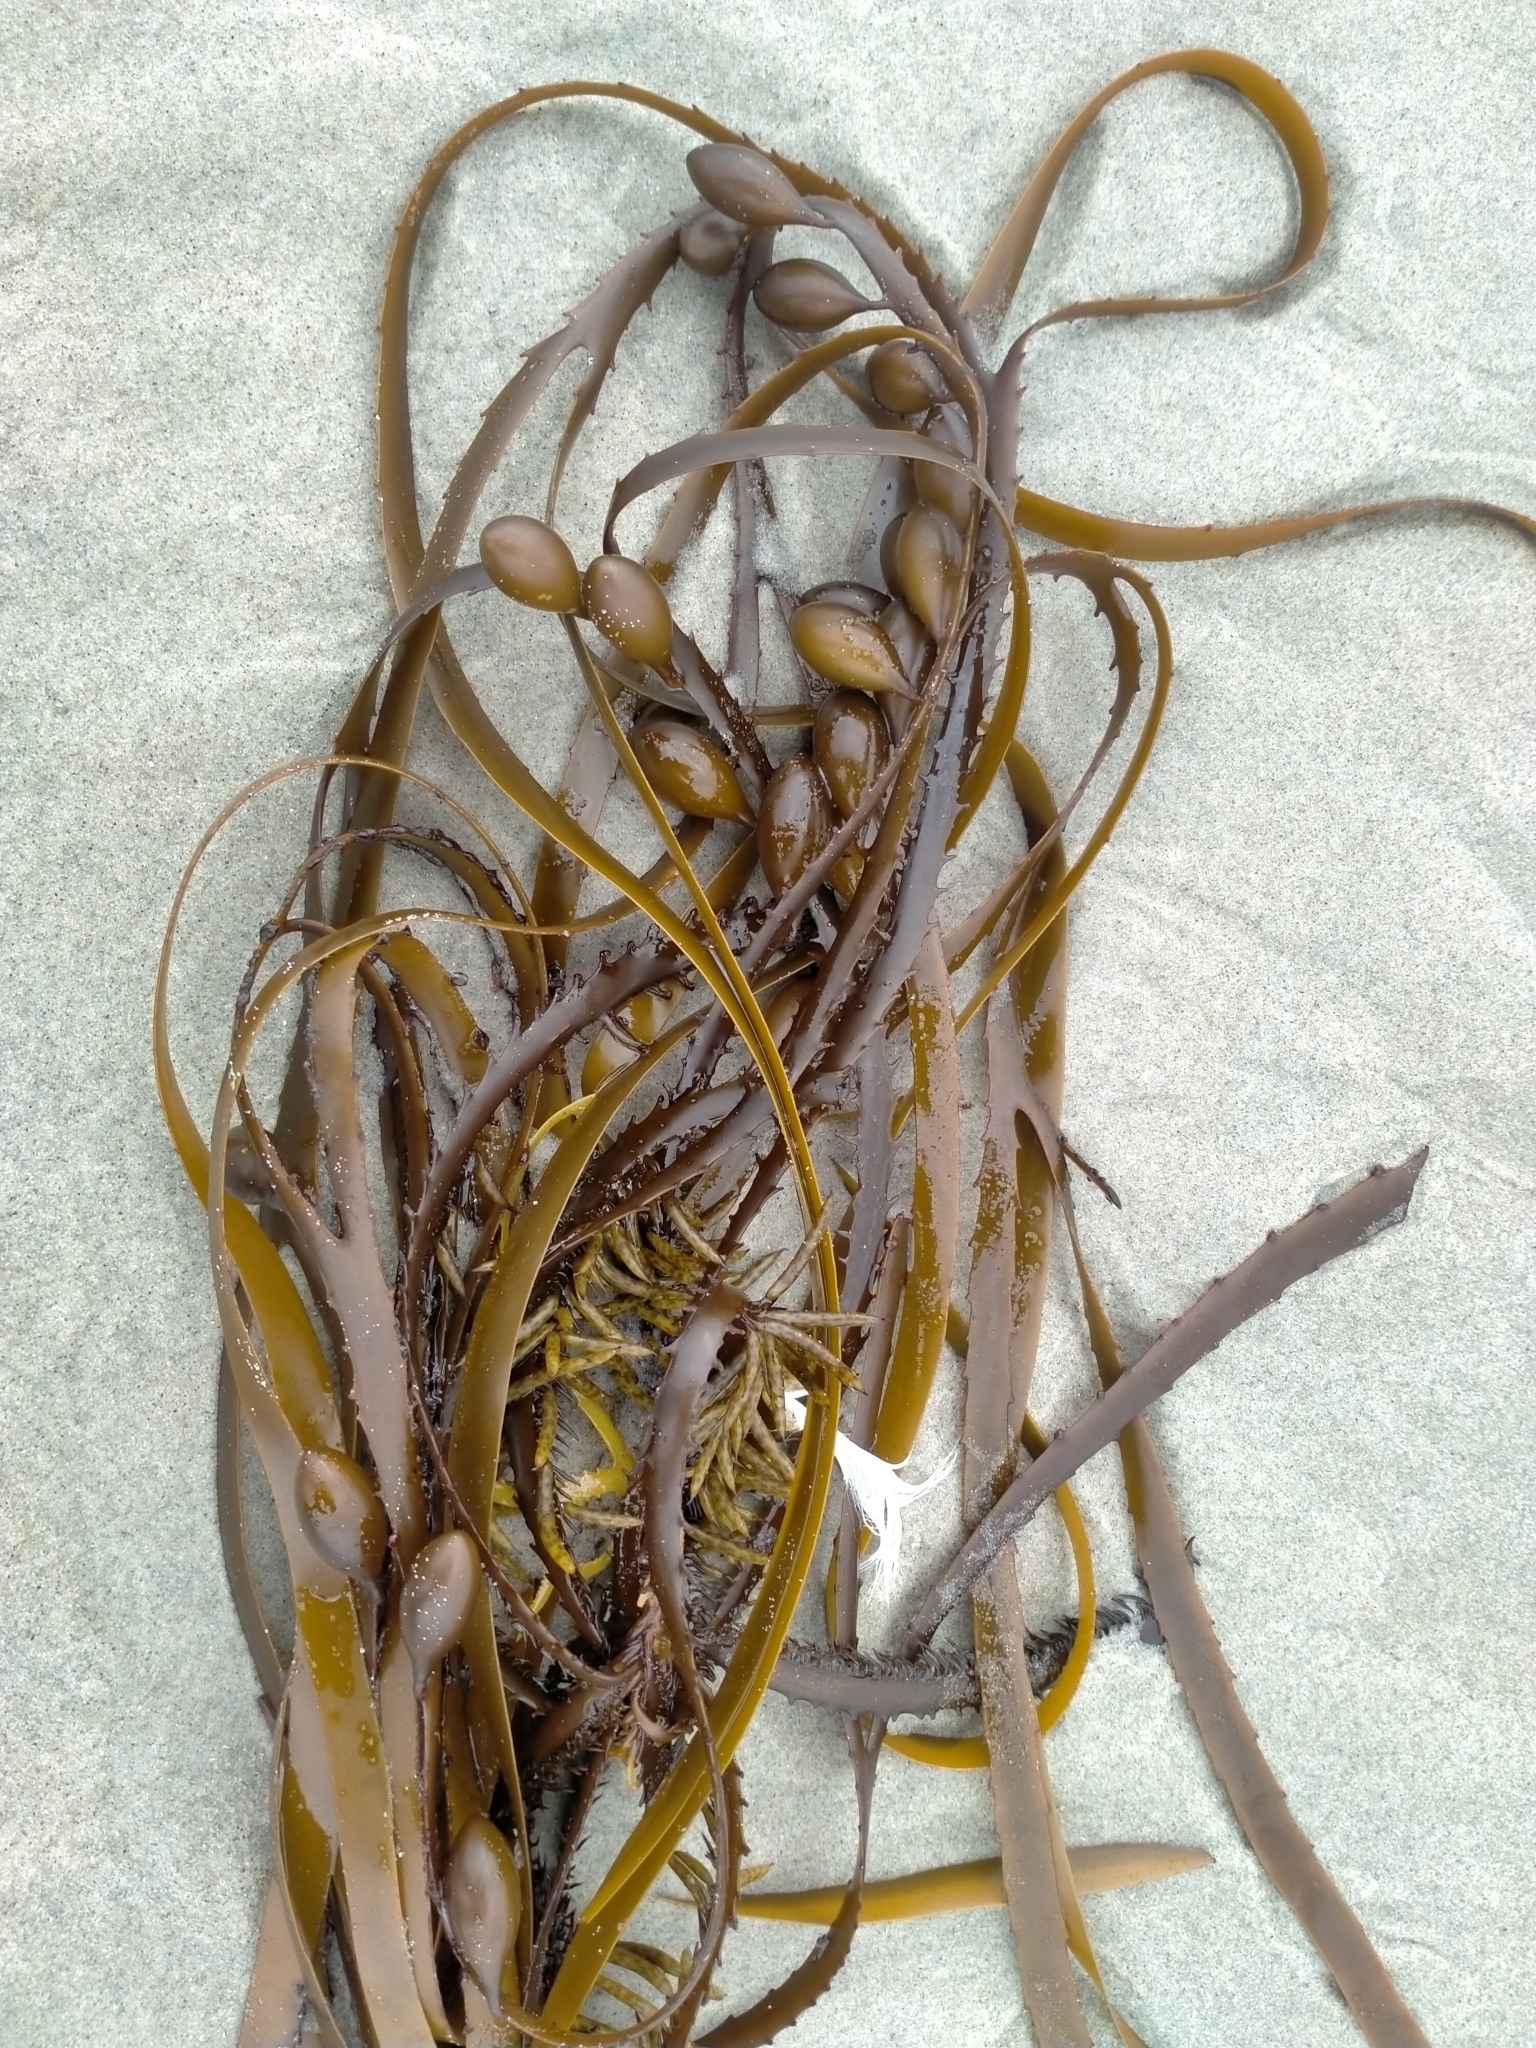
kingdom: Chromista
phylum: Ochrophyta
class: Phaeophyceae
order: Fucales
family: Seirococcaceae
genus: Marginariella
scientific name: Marginariella boryana
